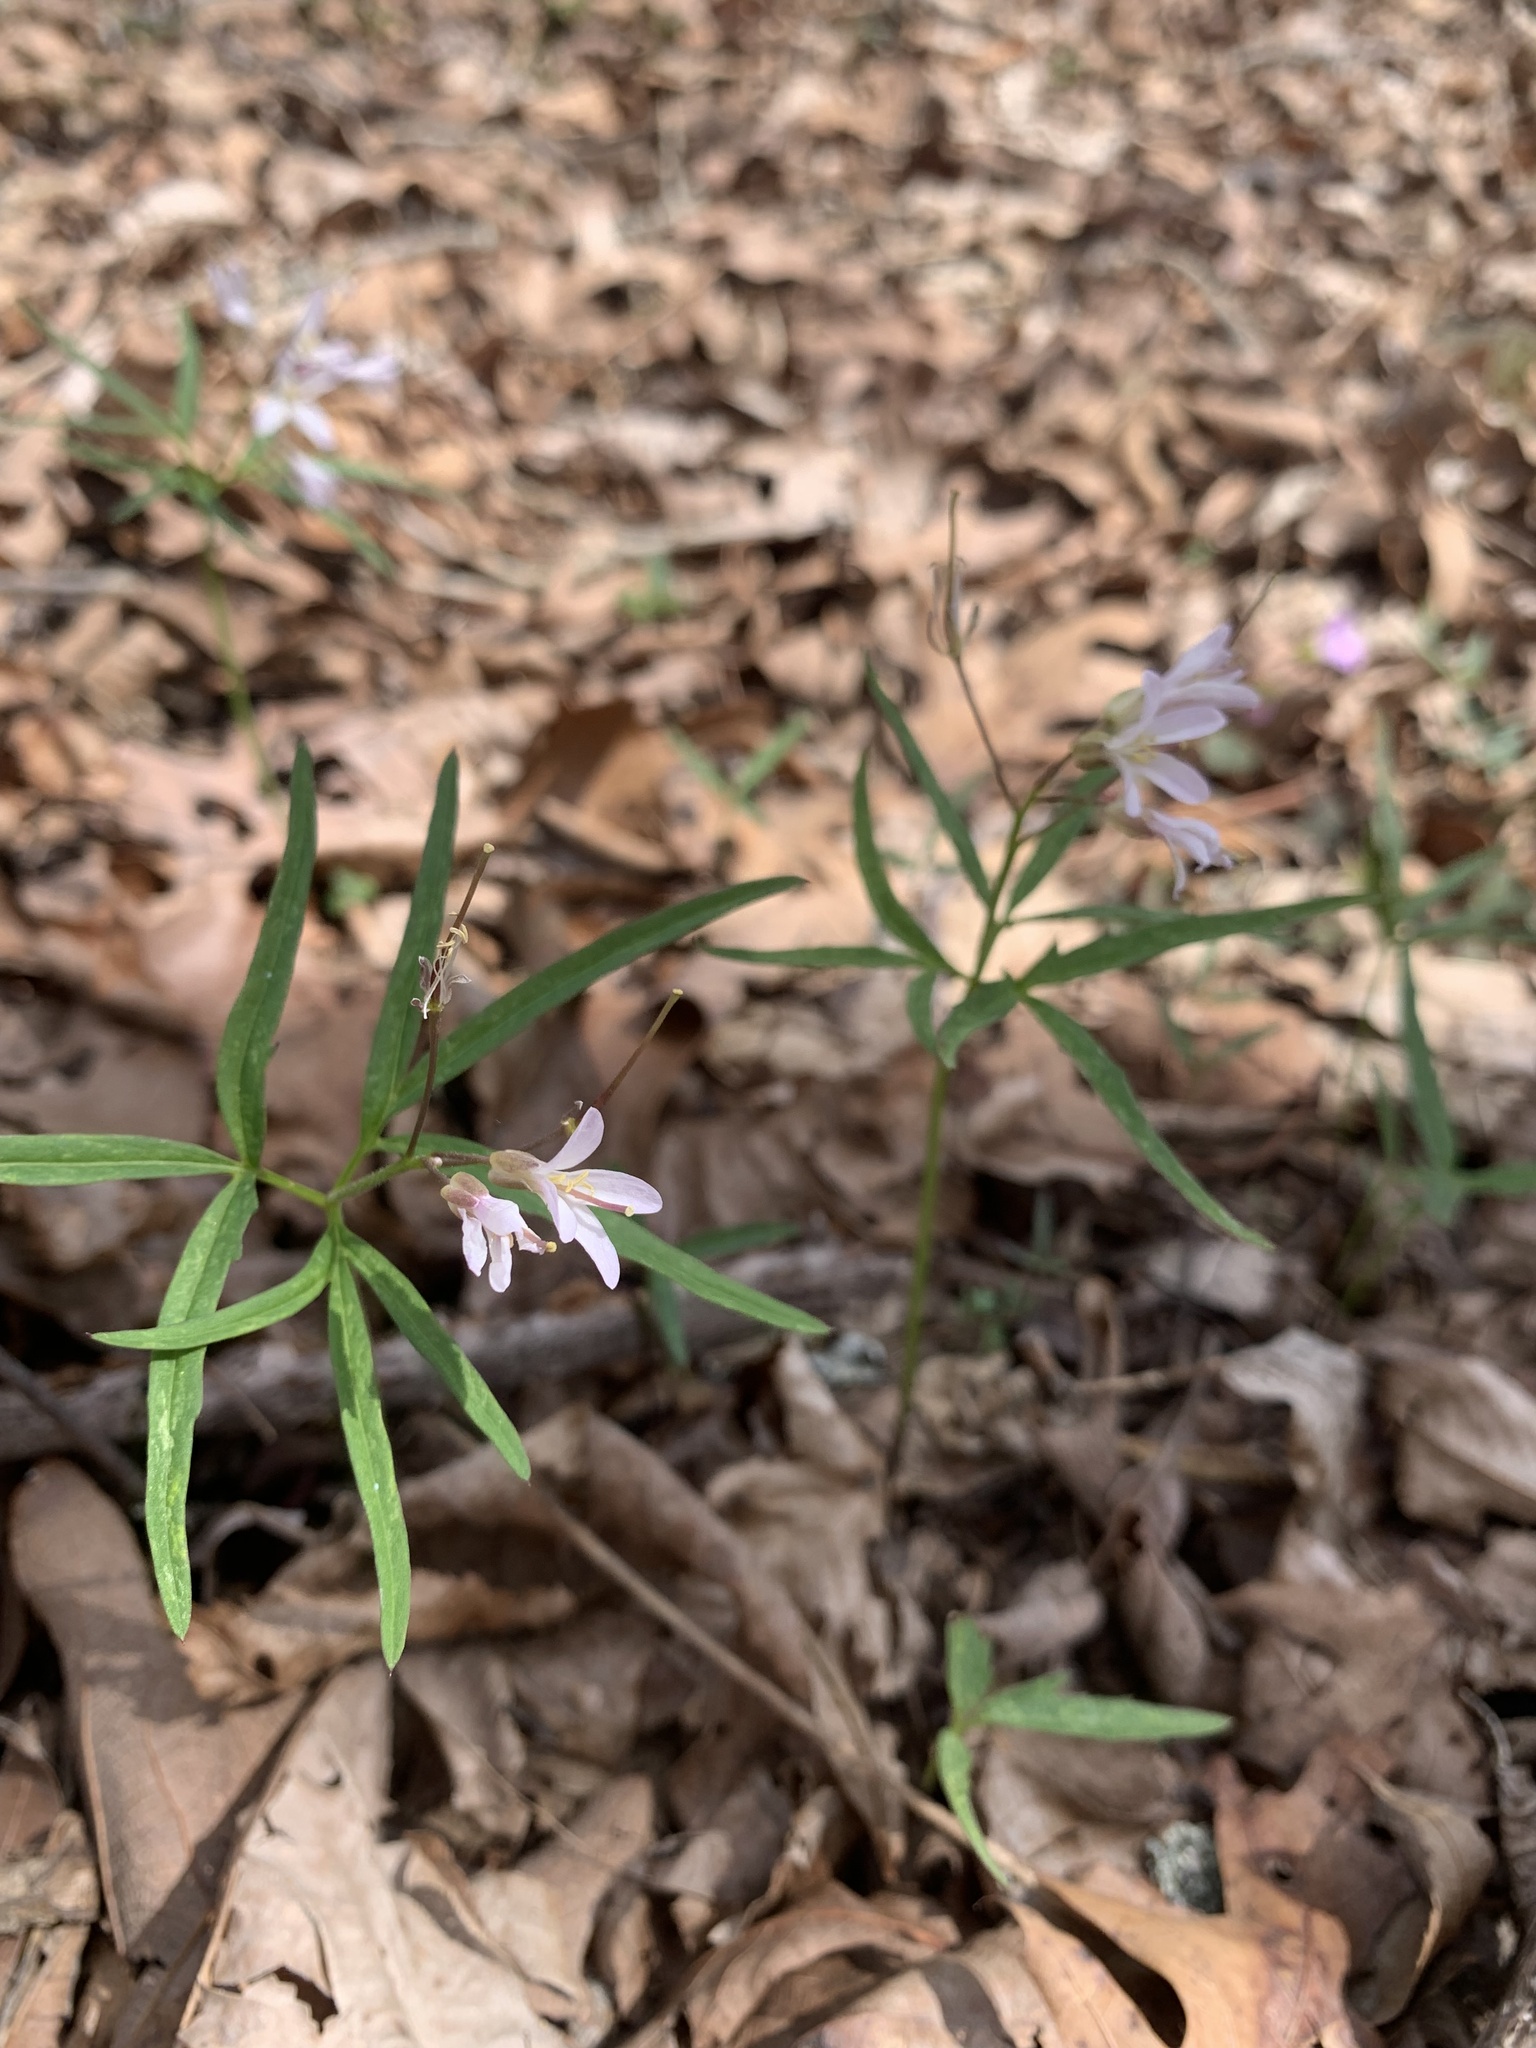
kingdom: Plantae
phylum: Tracheophyta
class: Magnoliopsida
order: Brassicales
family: Brassicaceae
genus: Cardamine
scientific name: Cardamine concatenata
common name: Cut-leaf toothcup
